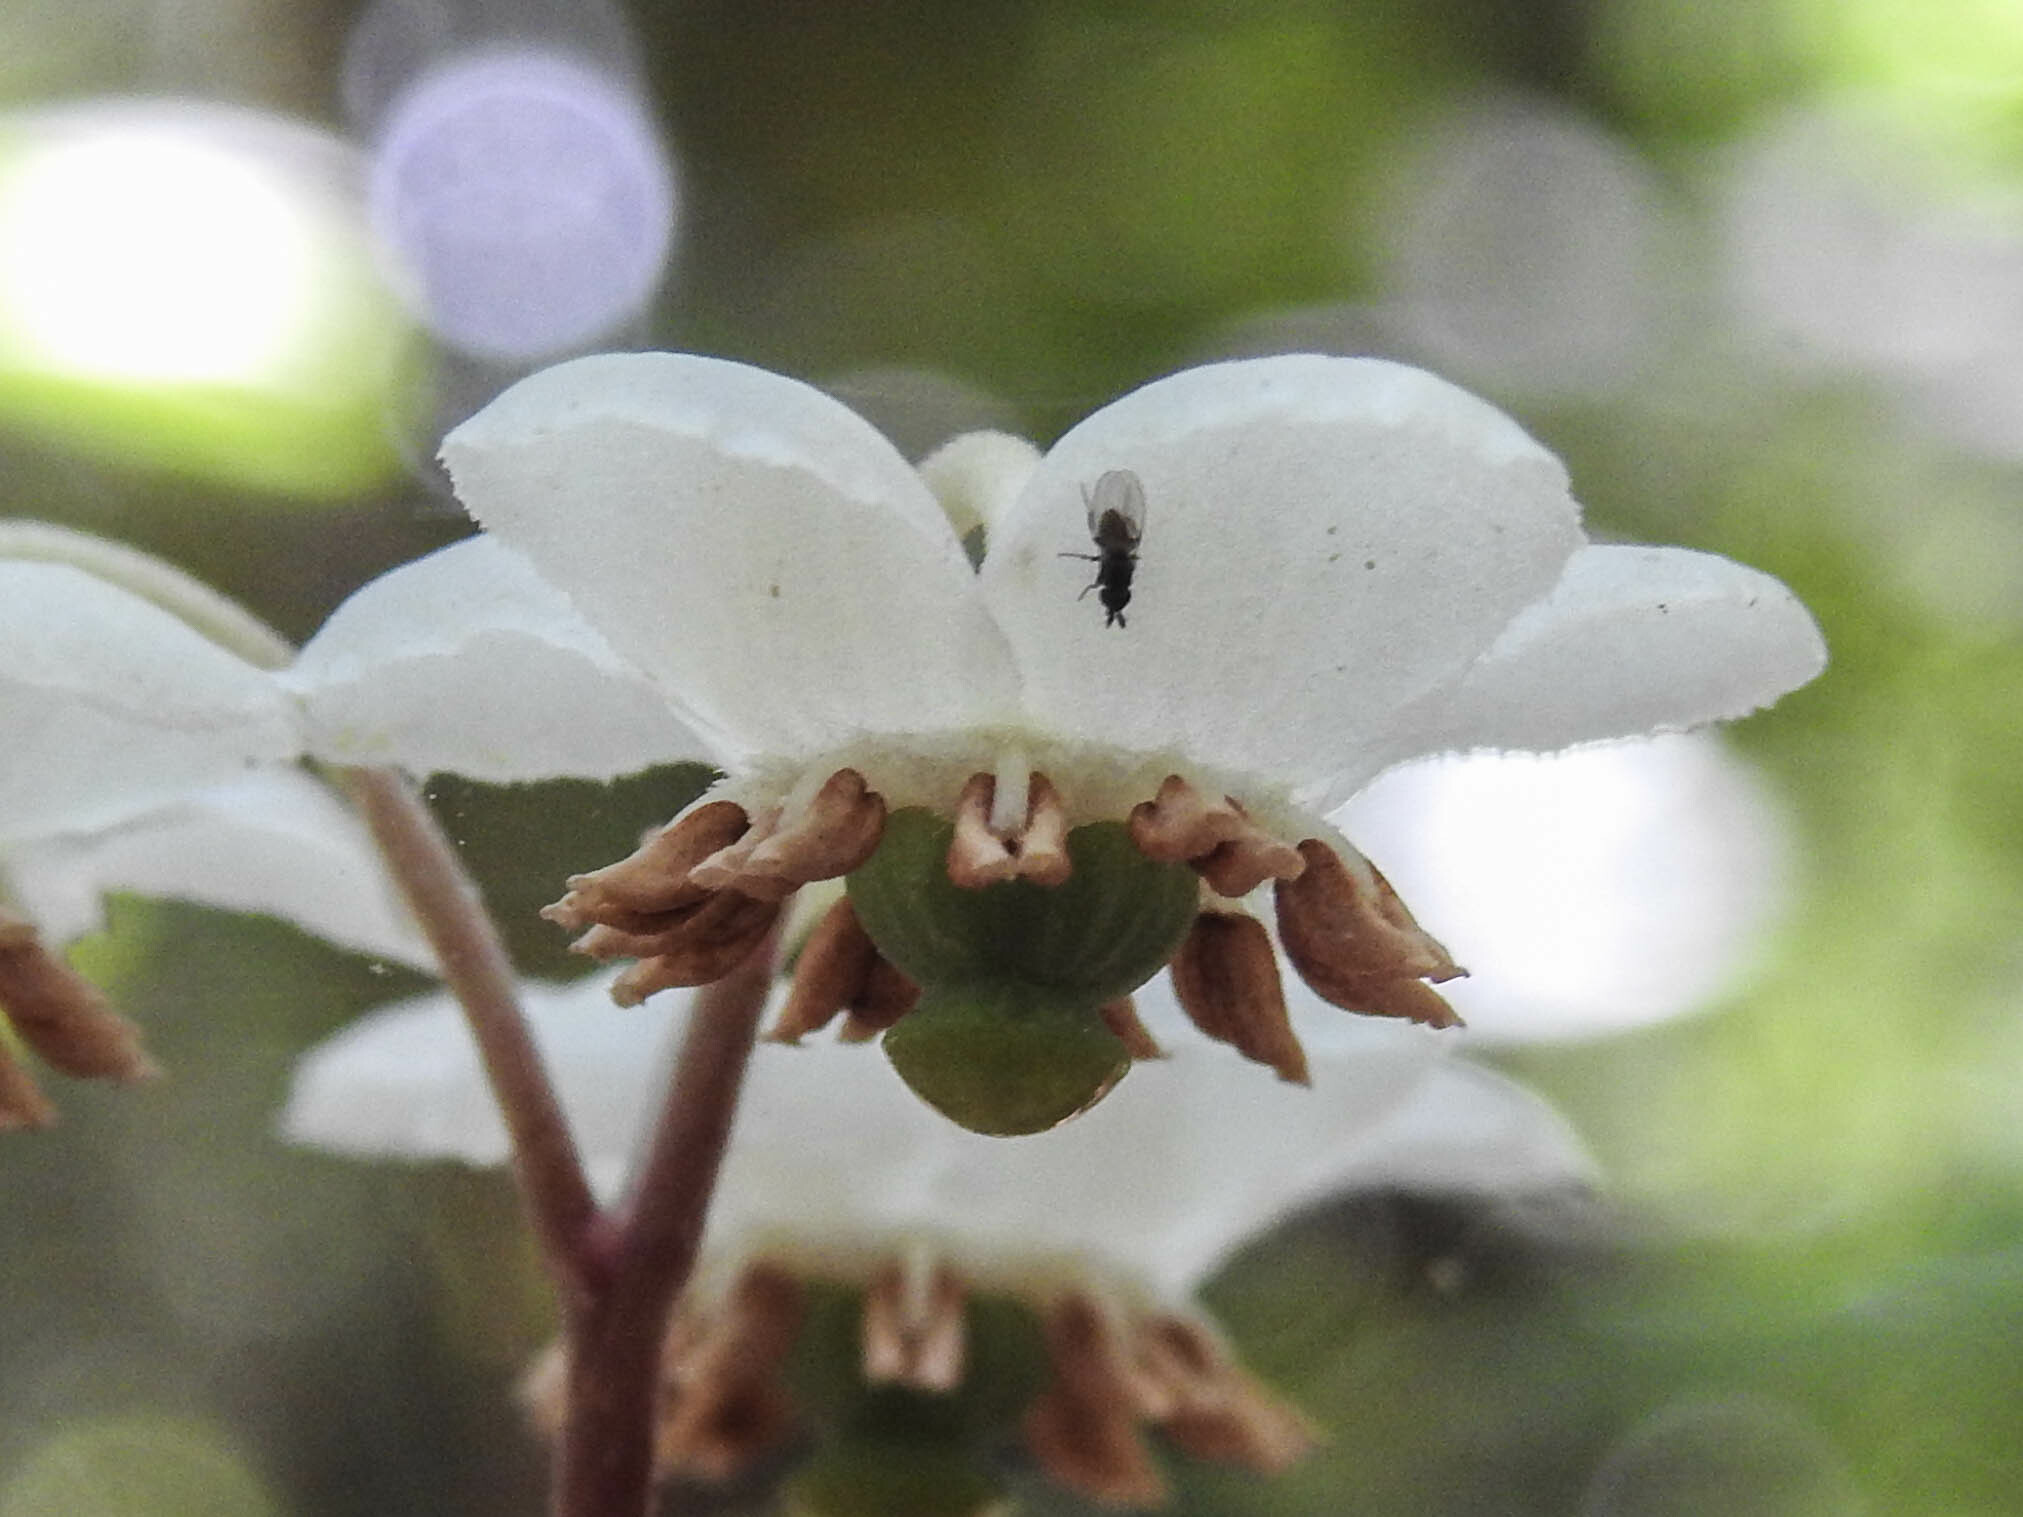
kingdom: Plantae
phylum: Tracheophyta
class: Magnoliopsida
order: Ericales
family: Ericaceae
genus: Chimaphila
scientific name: Chimaphila maculata
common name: Spotted pipsissewa
